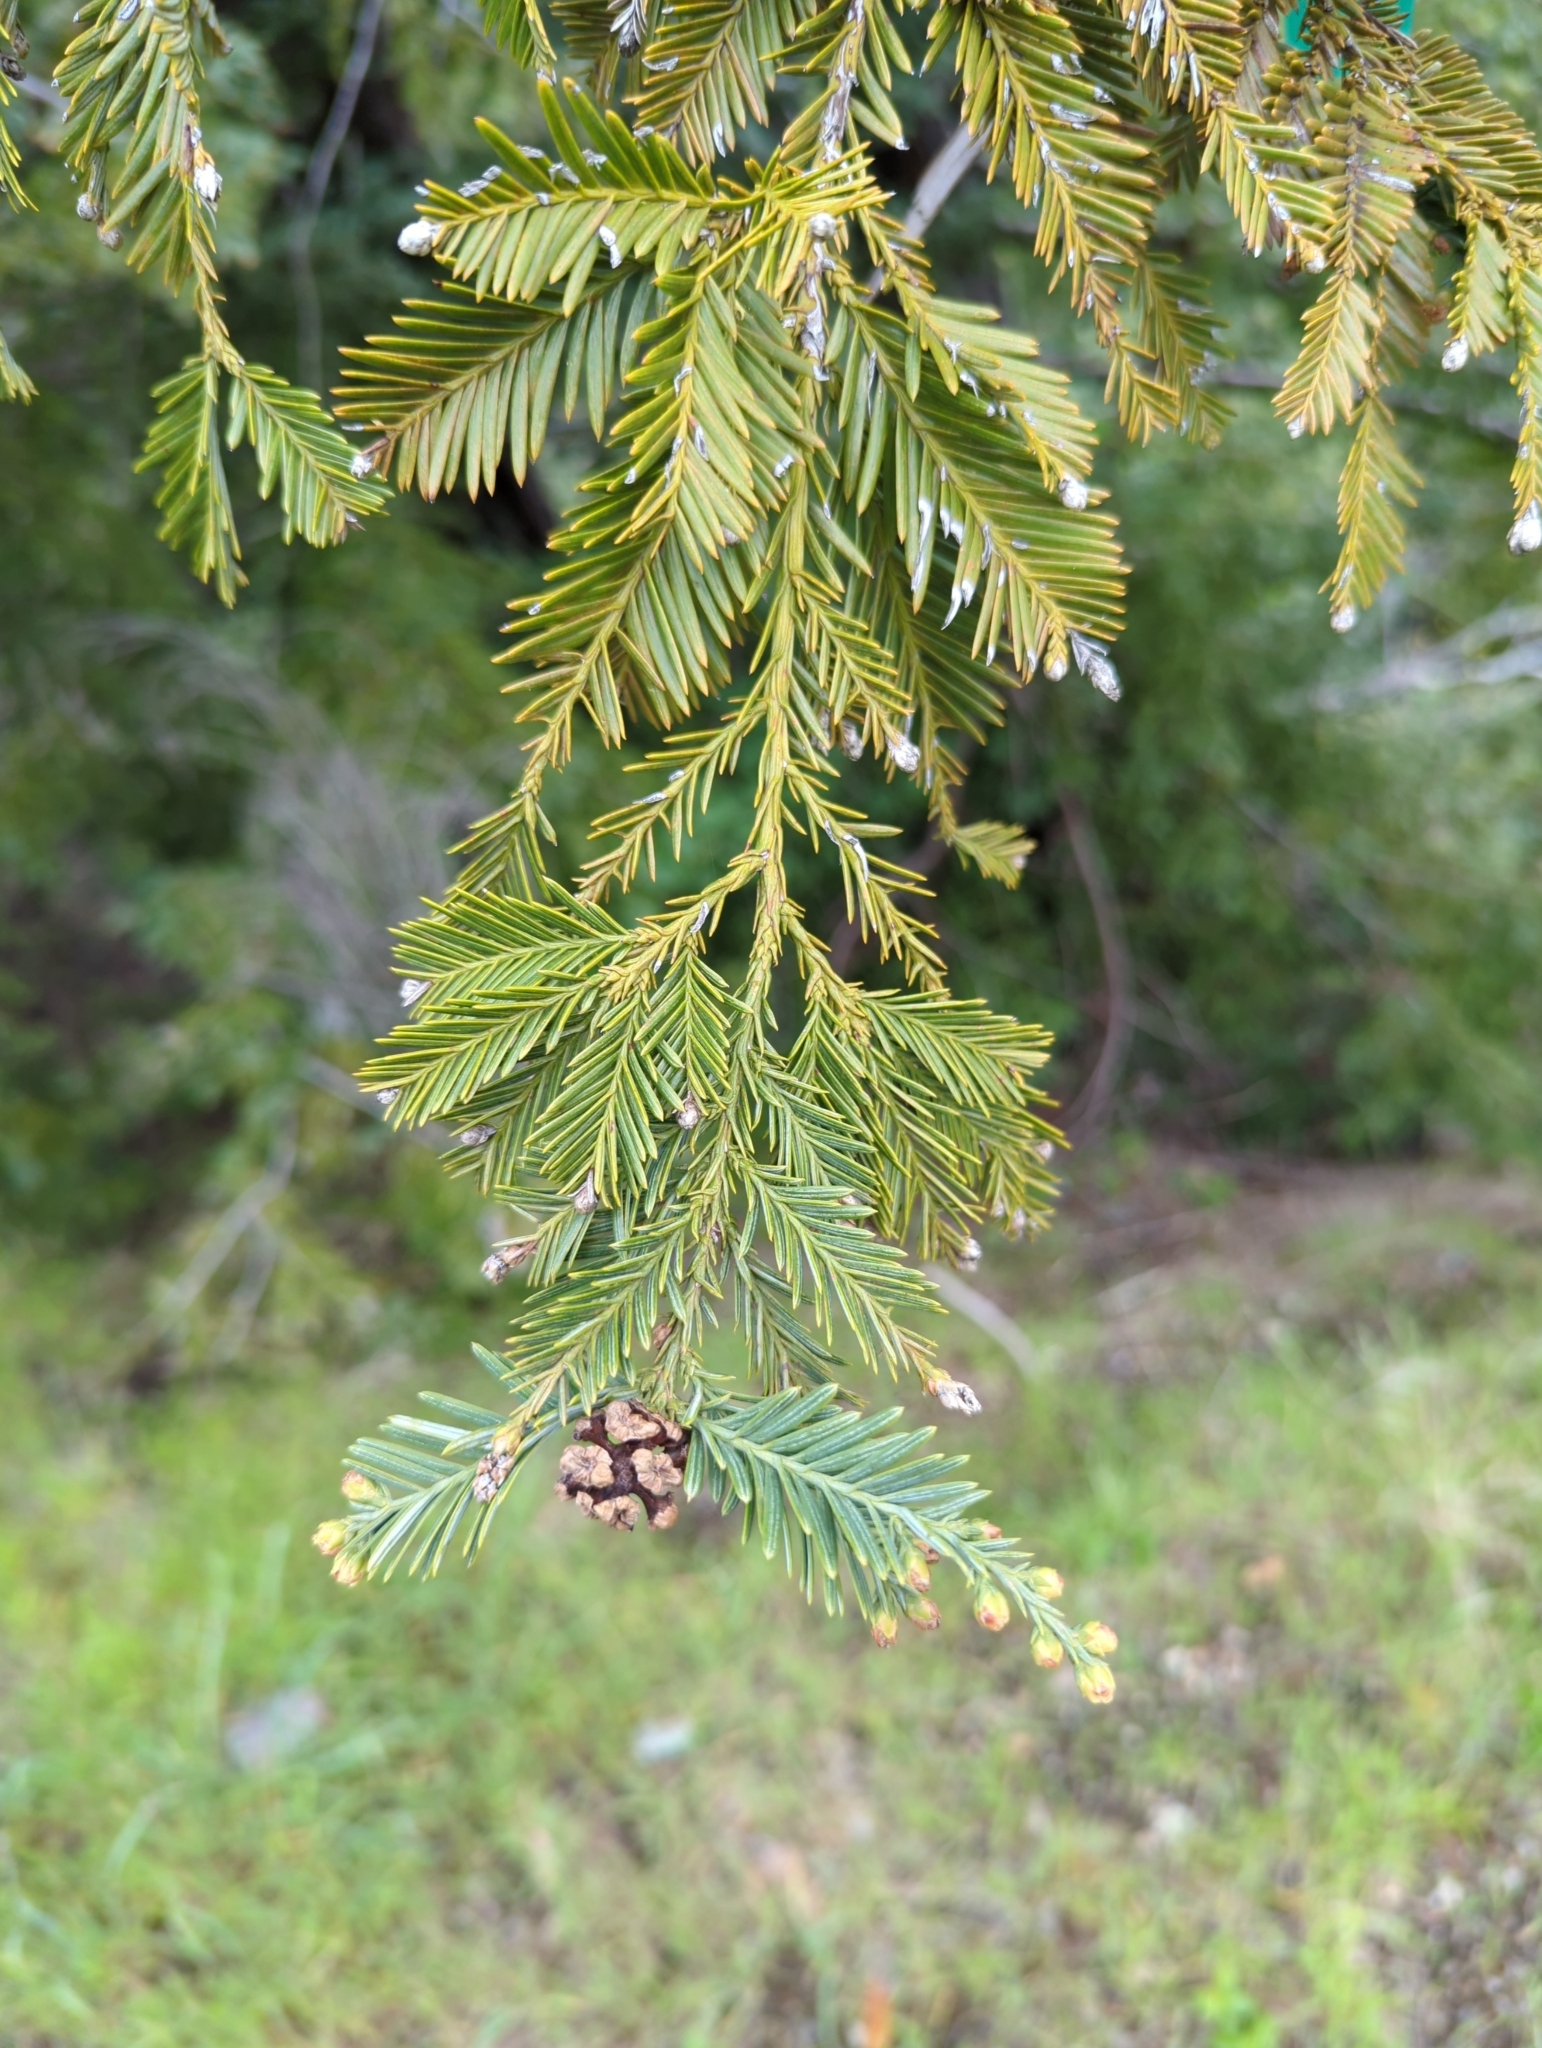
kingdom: Plantae
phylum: Tracheophyta
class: Pinopsida
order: Pinales
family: Cupressaceae
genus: Sequoia
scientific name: Sequoia sempervirens
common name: Coast redwood
